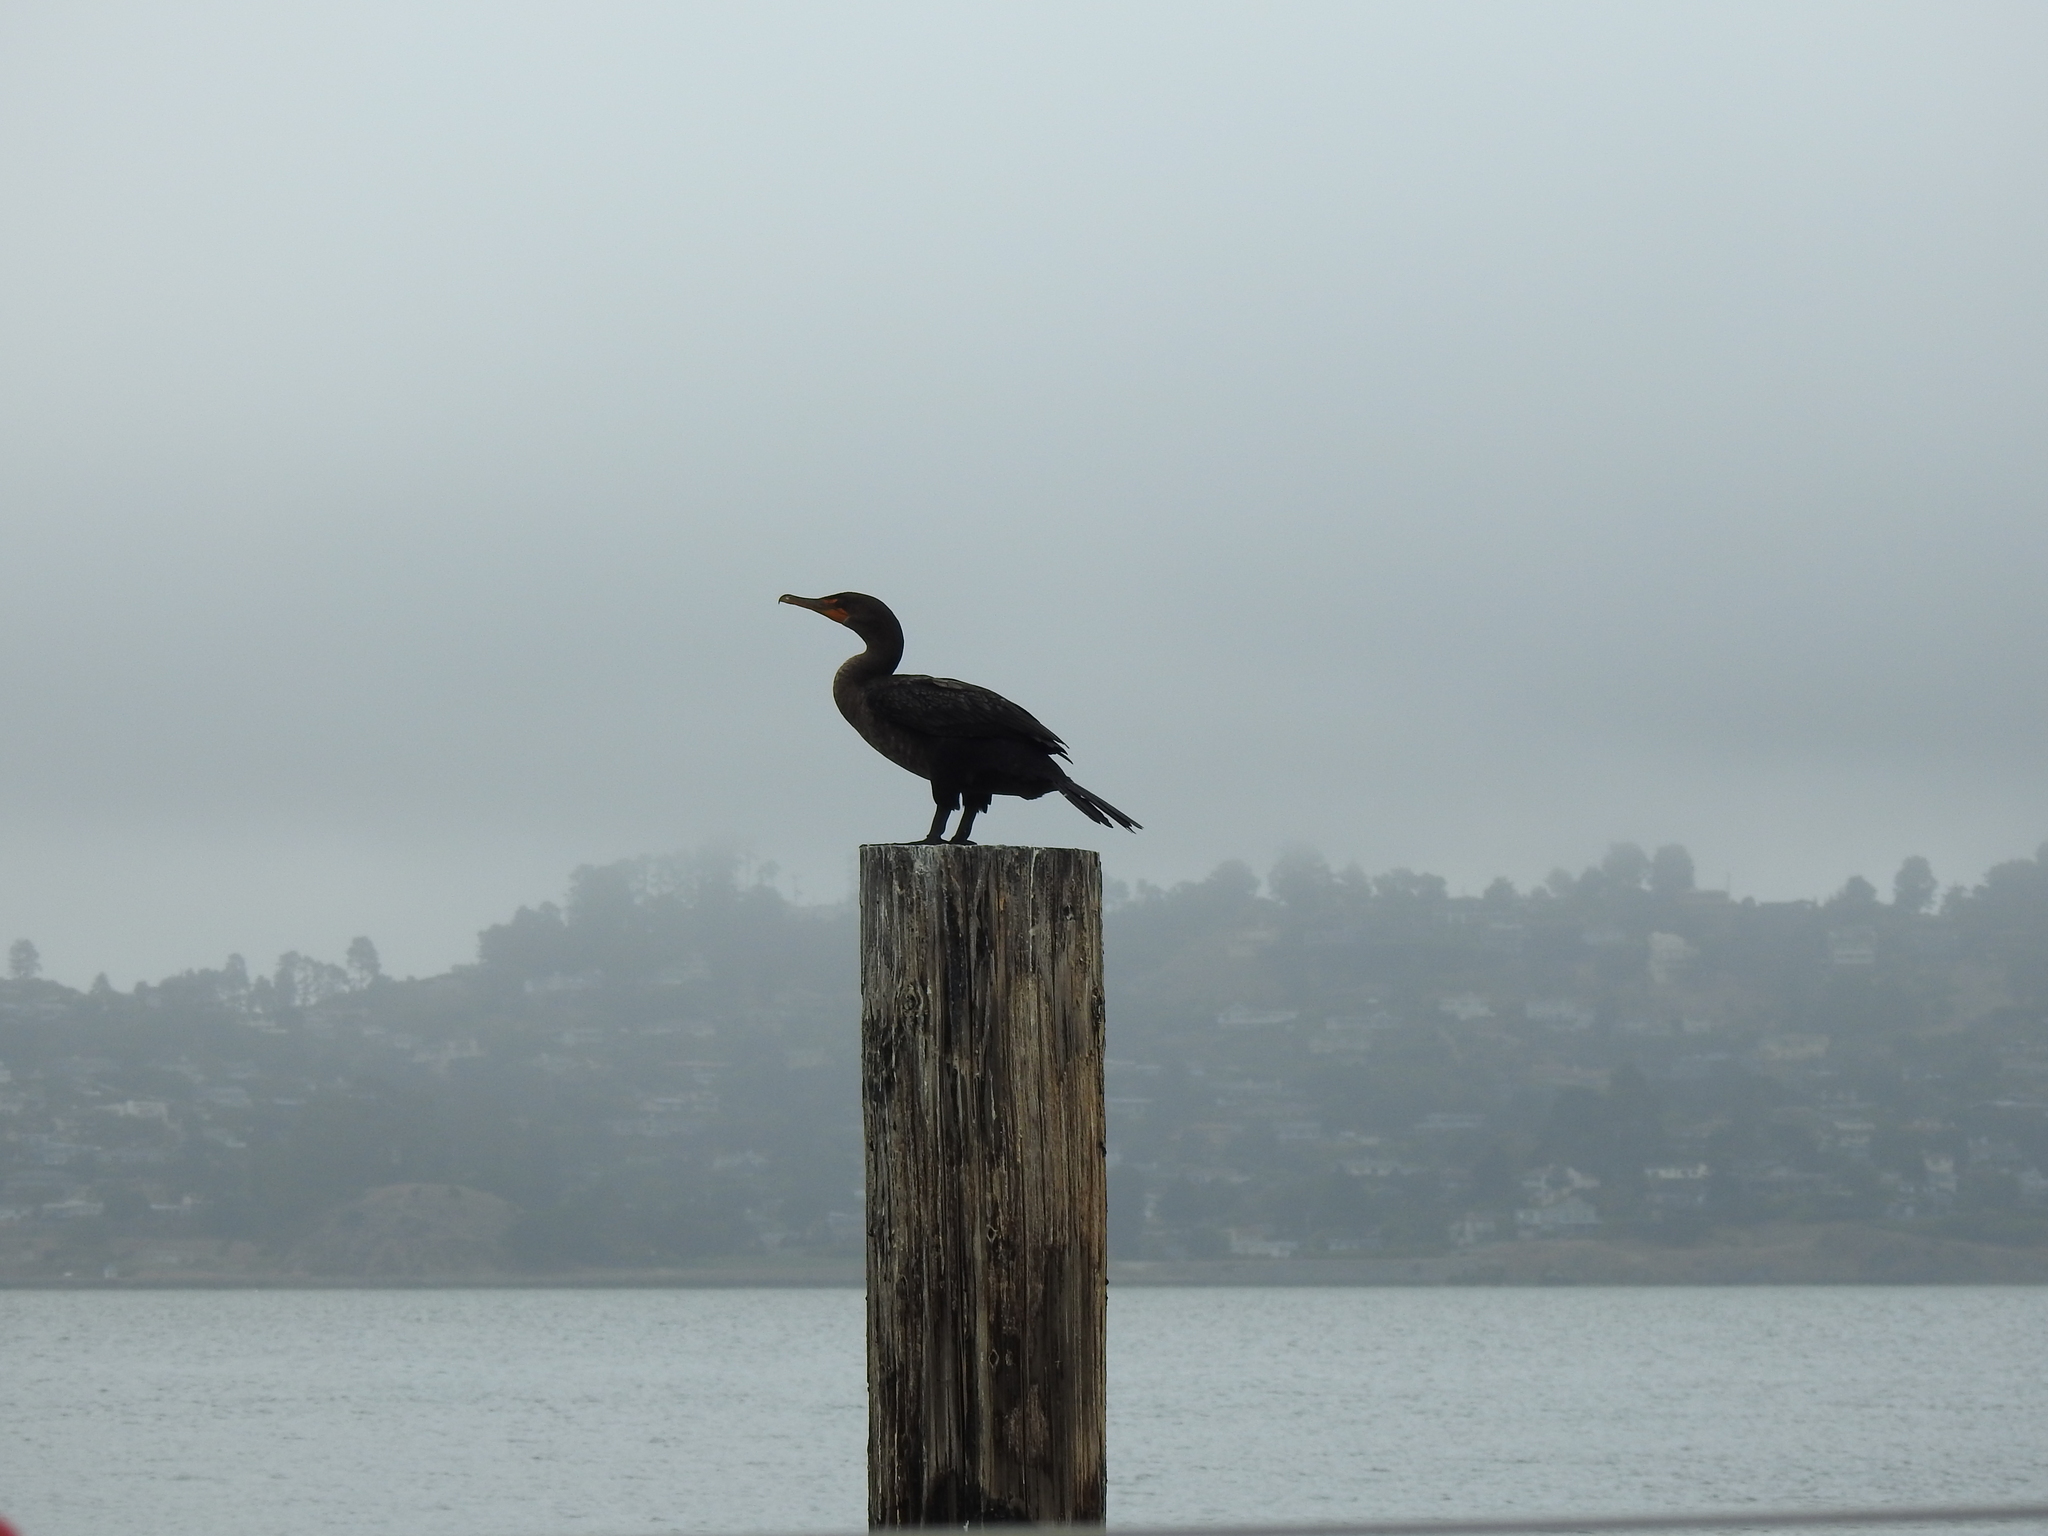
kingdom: Animalia
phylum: Chordata
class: Aves
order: Suliformes
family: Phalacrocoracidae
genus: Phalacrocorax
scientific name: Phalacrocorax auritus
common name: Double-crested cormorant
